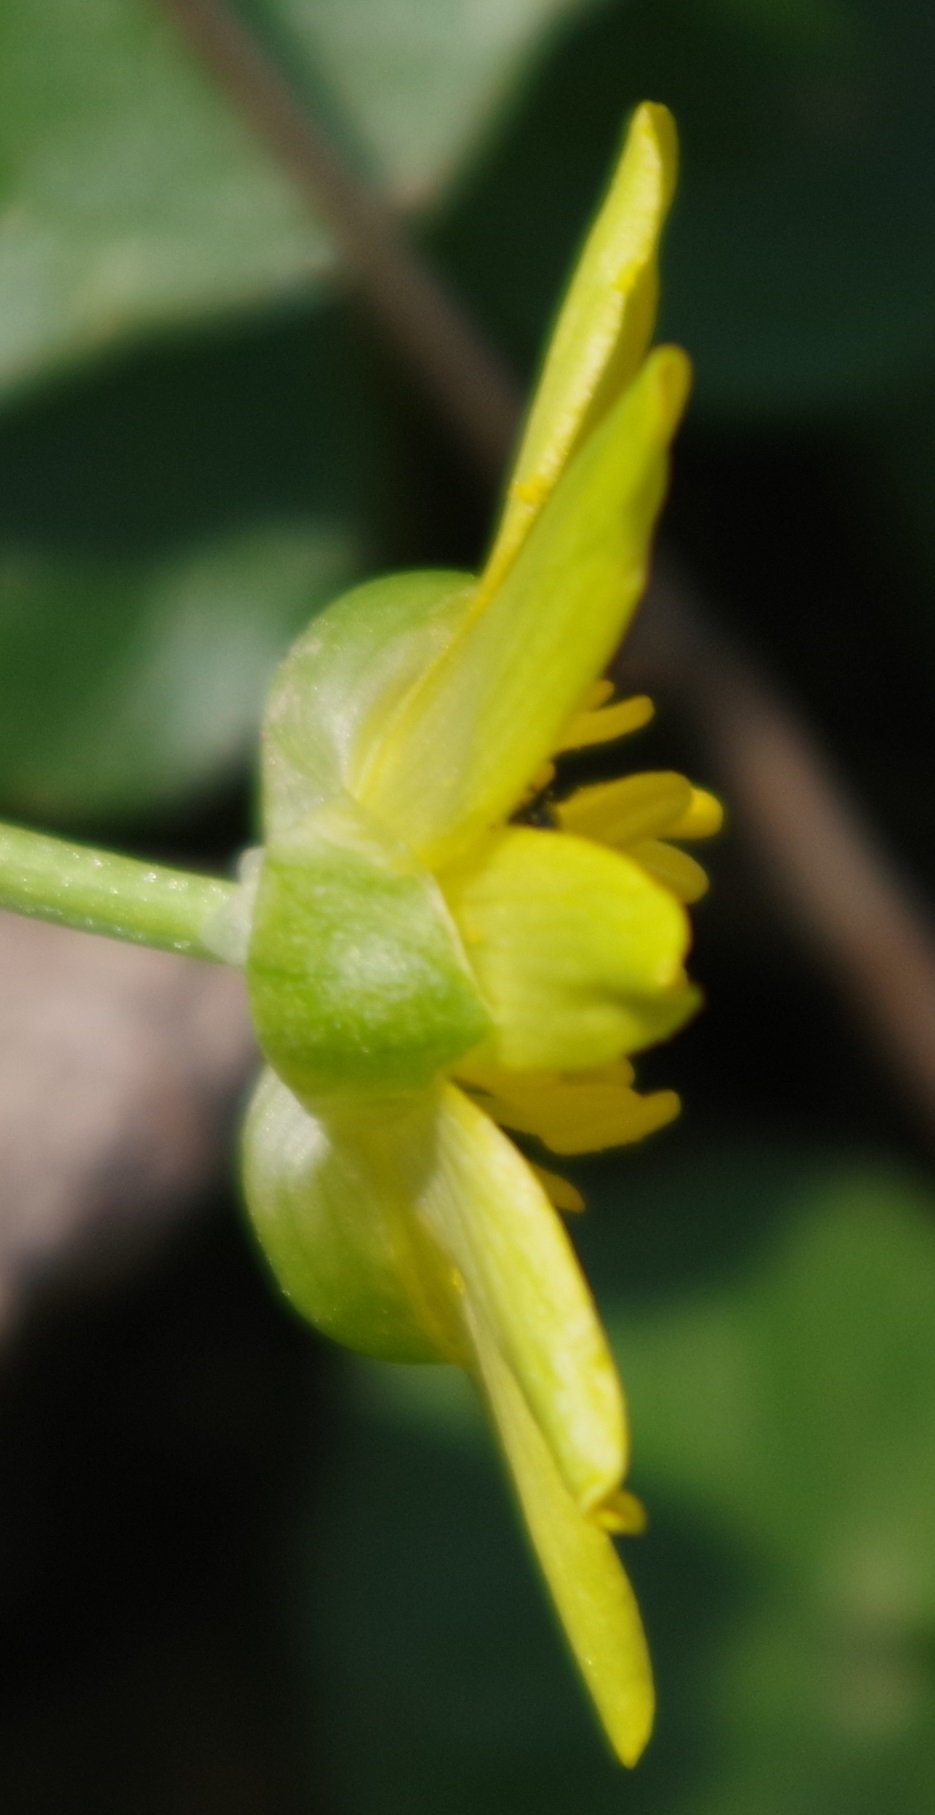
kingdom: Plantae
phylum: Tracheophyta
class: Magnoliopsida
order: Ranunculales
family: Ranunculaceae
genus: Ficaria
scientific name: Ficaria verna
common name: Lesser celandine
